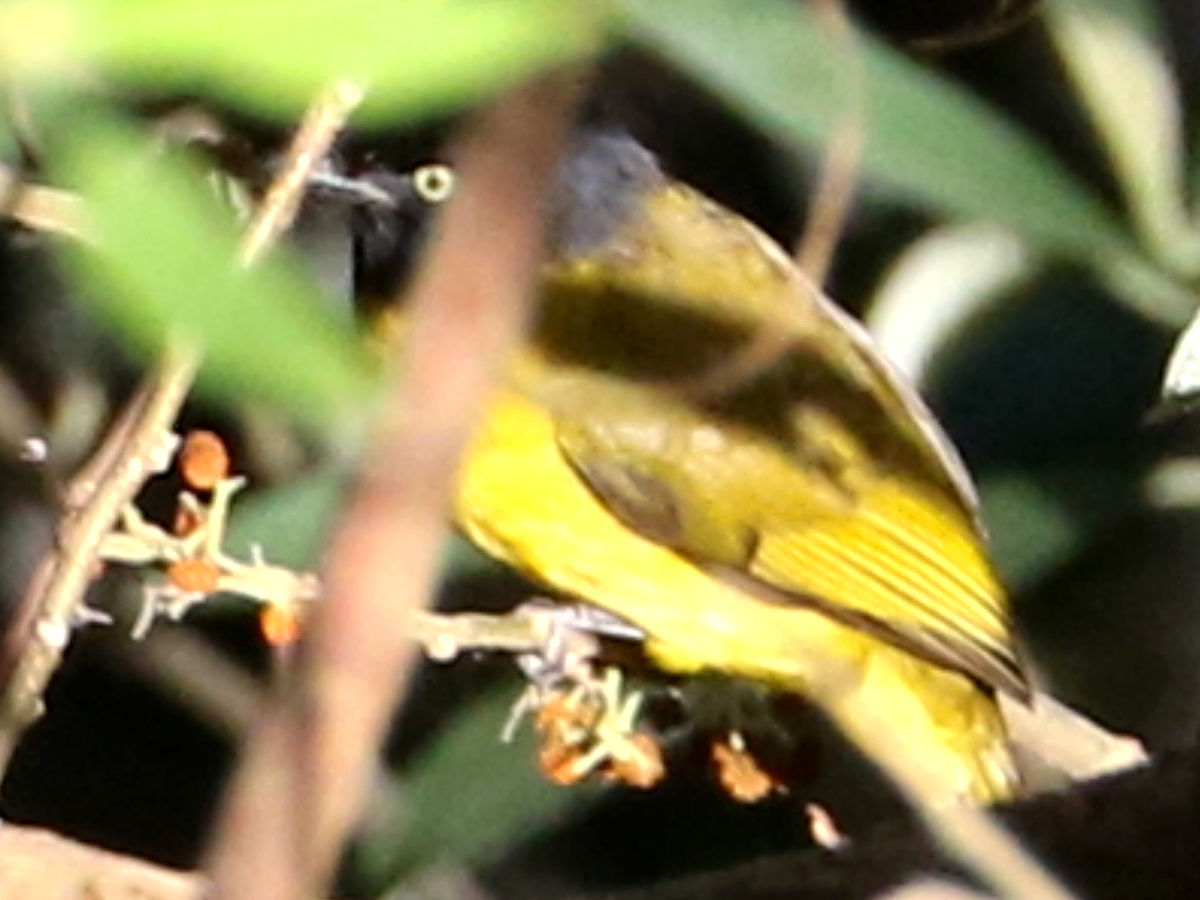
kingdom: Animalia
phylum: Chordata
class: Aves
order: Passeriformes
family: Pycnonotidae
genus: Pycnonotus
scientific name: Pycnonotus flaviventris
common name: Black-crested bulbul
